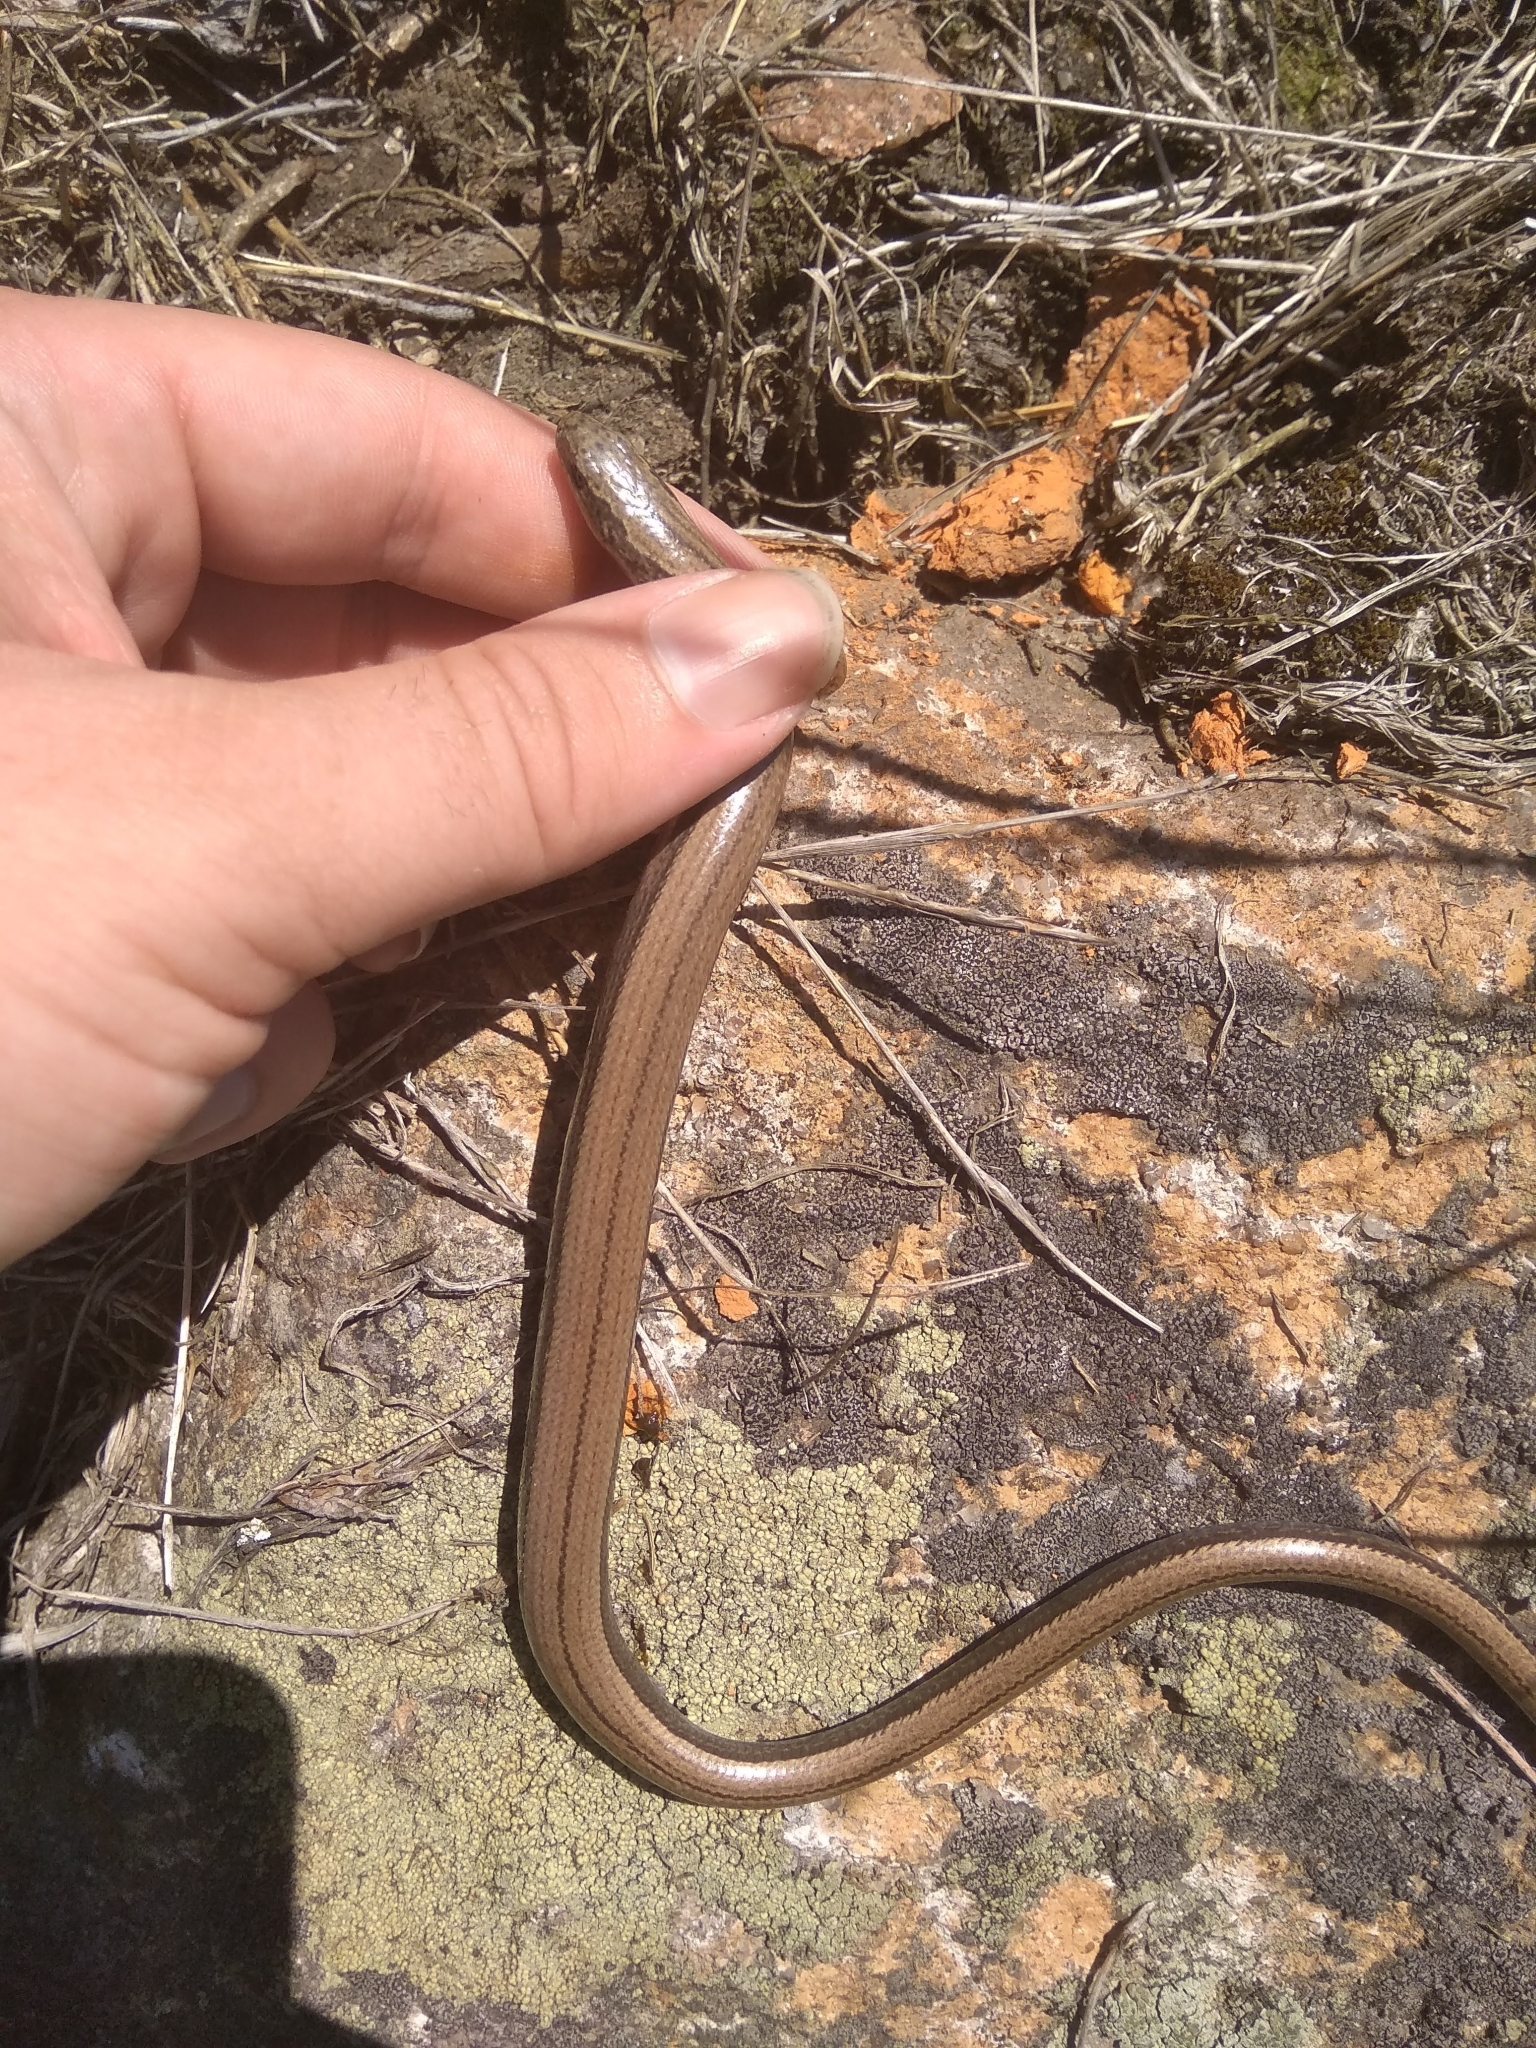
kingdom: Animalia
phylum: Chordata
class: Squamata
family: Anguidae
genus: Anguis
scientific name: Anguis fragilis
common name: Slow worm
